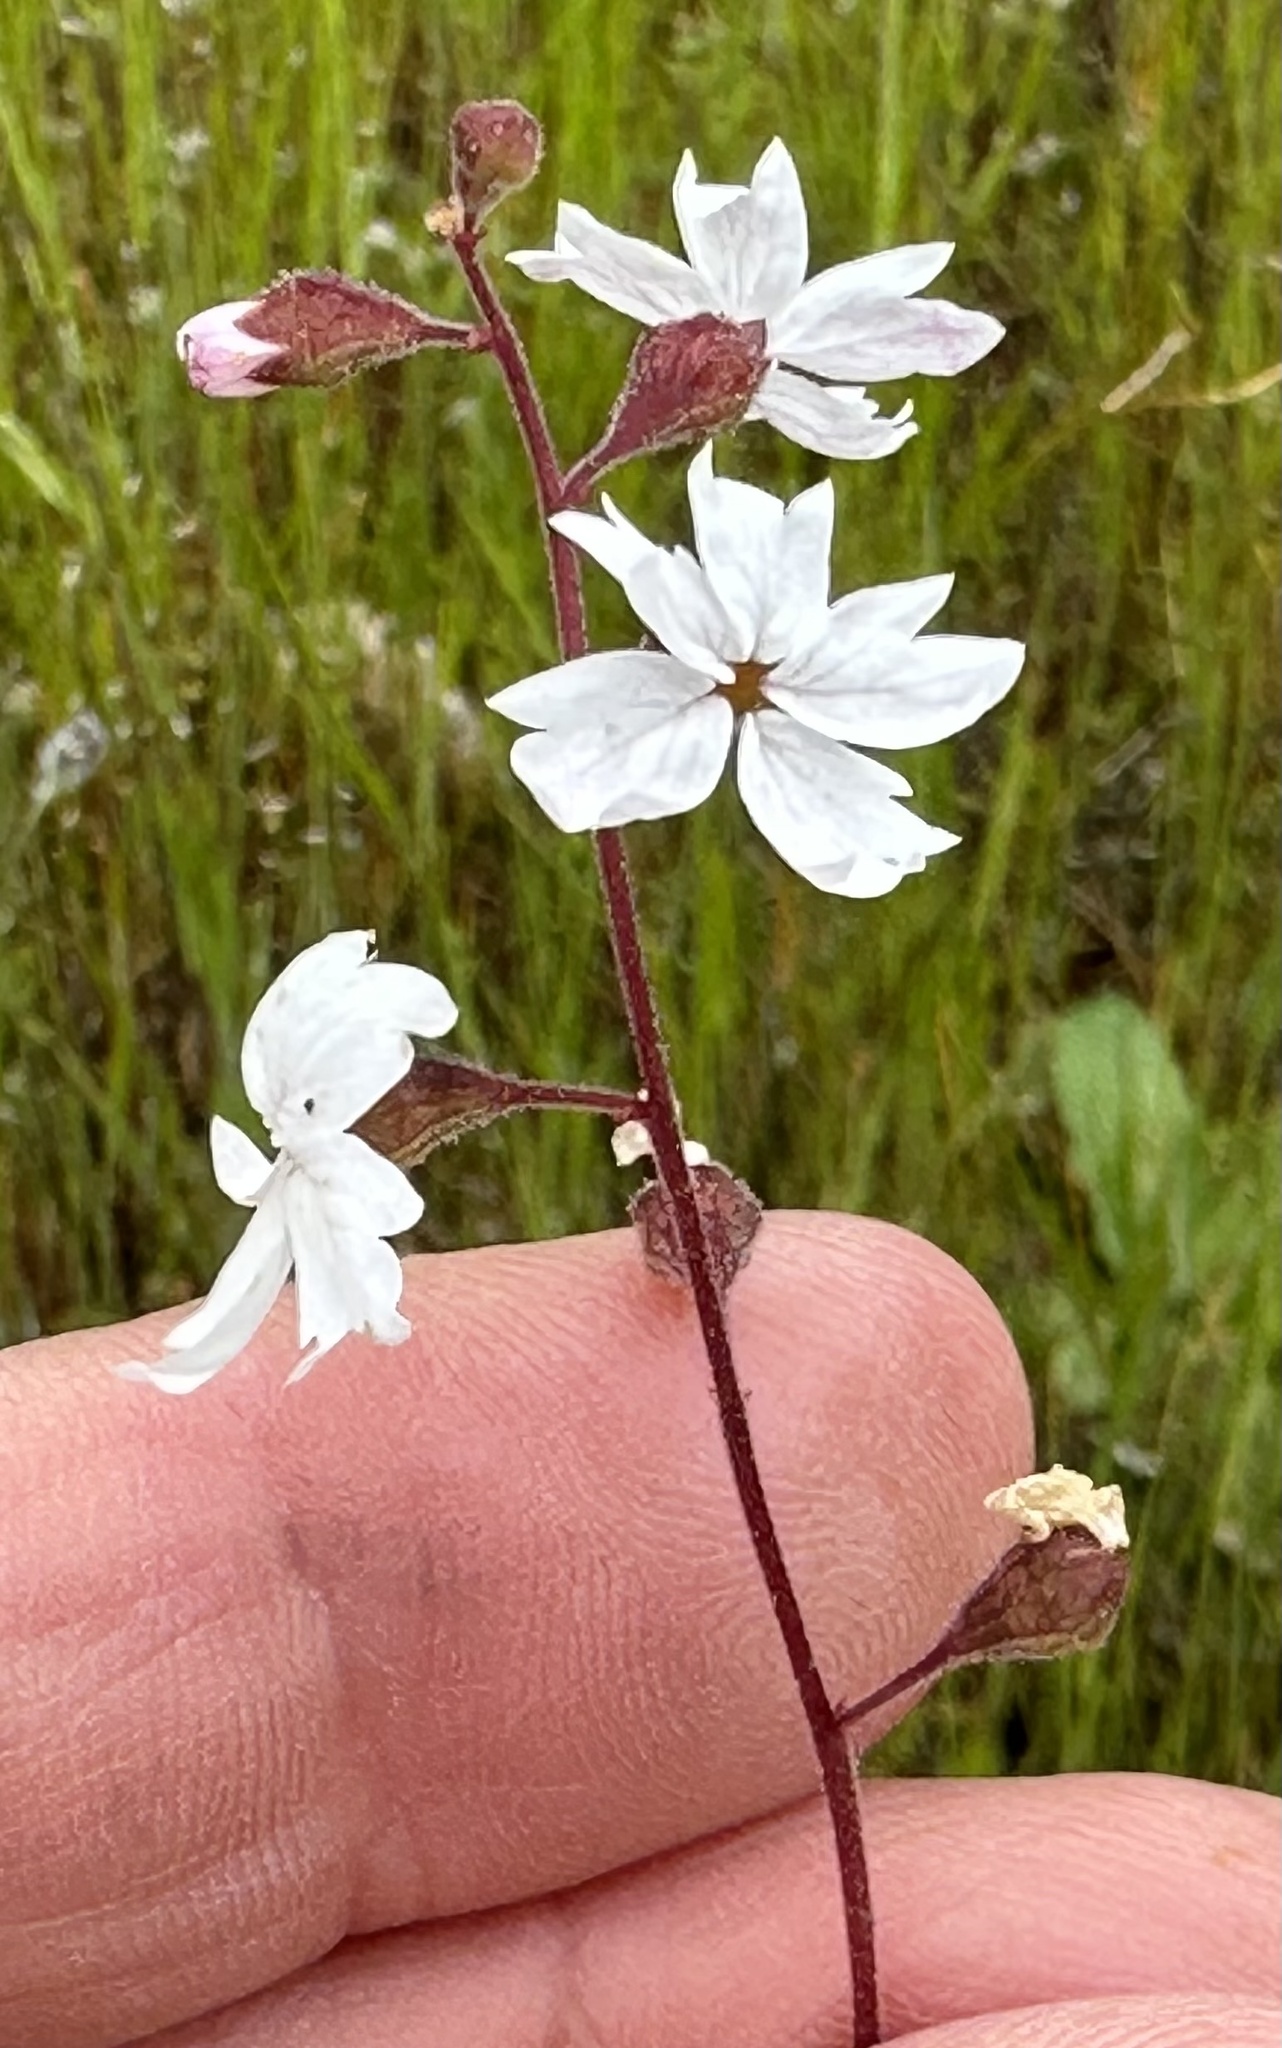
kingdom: Plantae
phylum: Tracheophyta
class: Magnoliopsida
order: Saxifragales
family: Saxifragaceae
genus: Lithophragma
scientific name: Lithophragma affine
